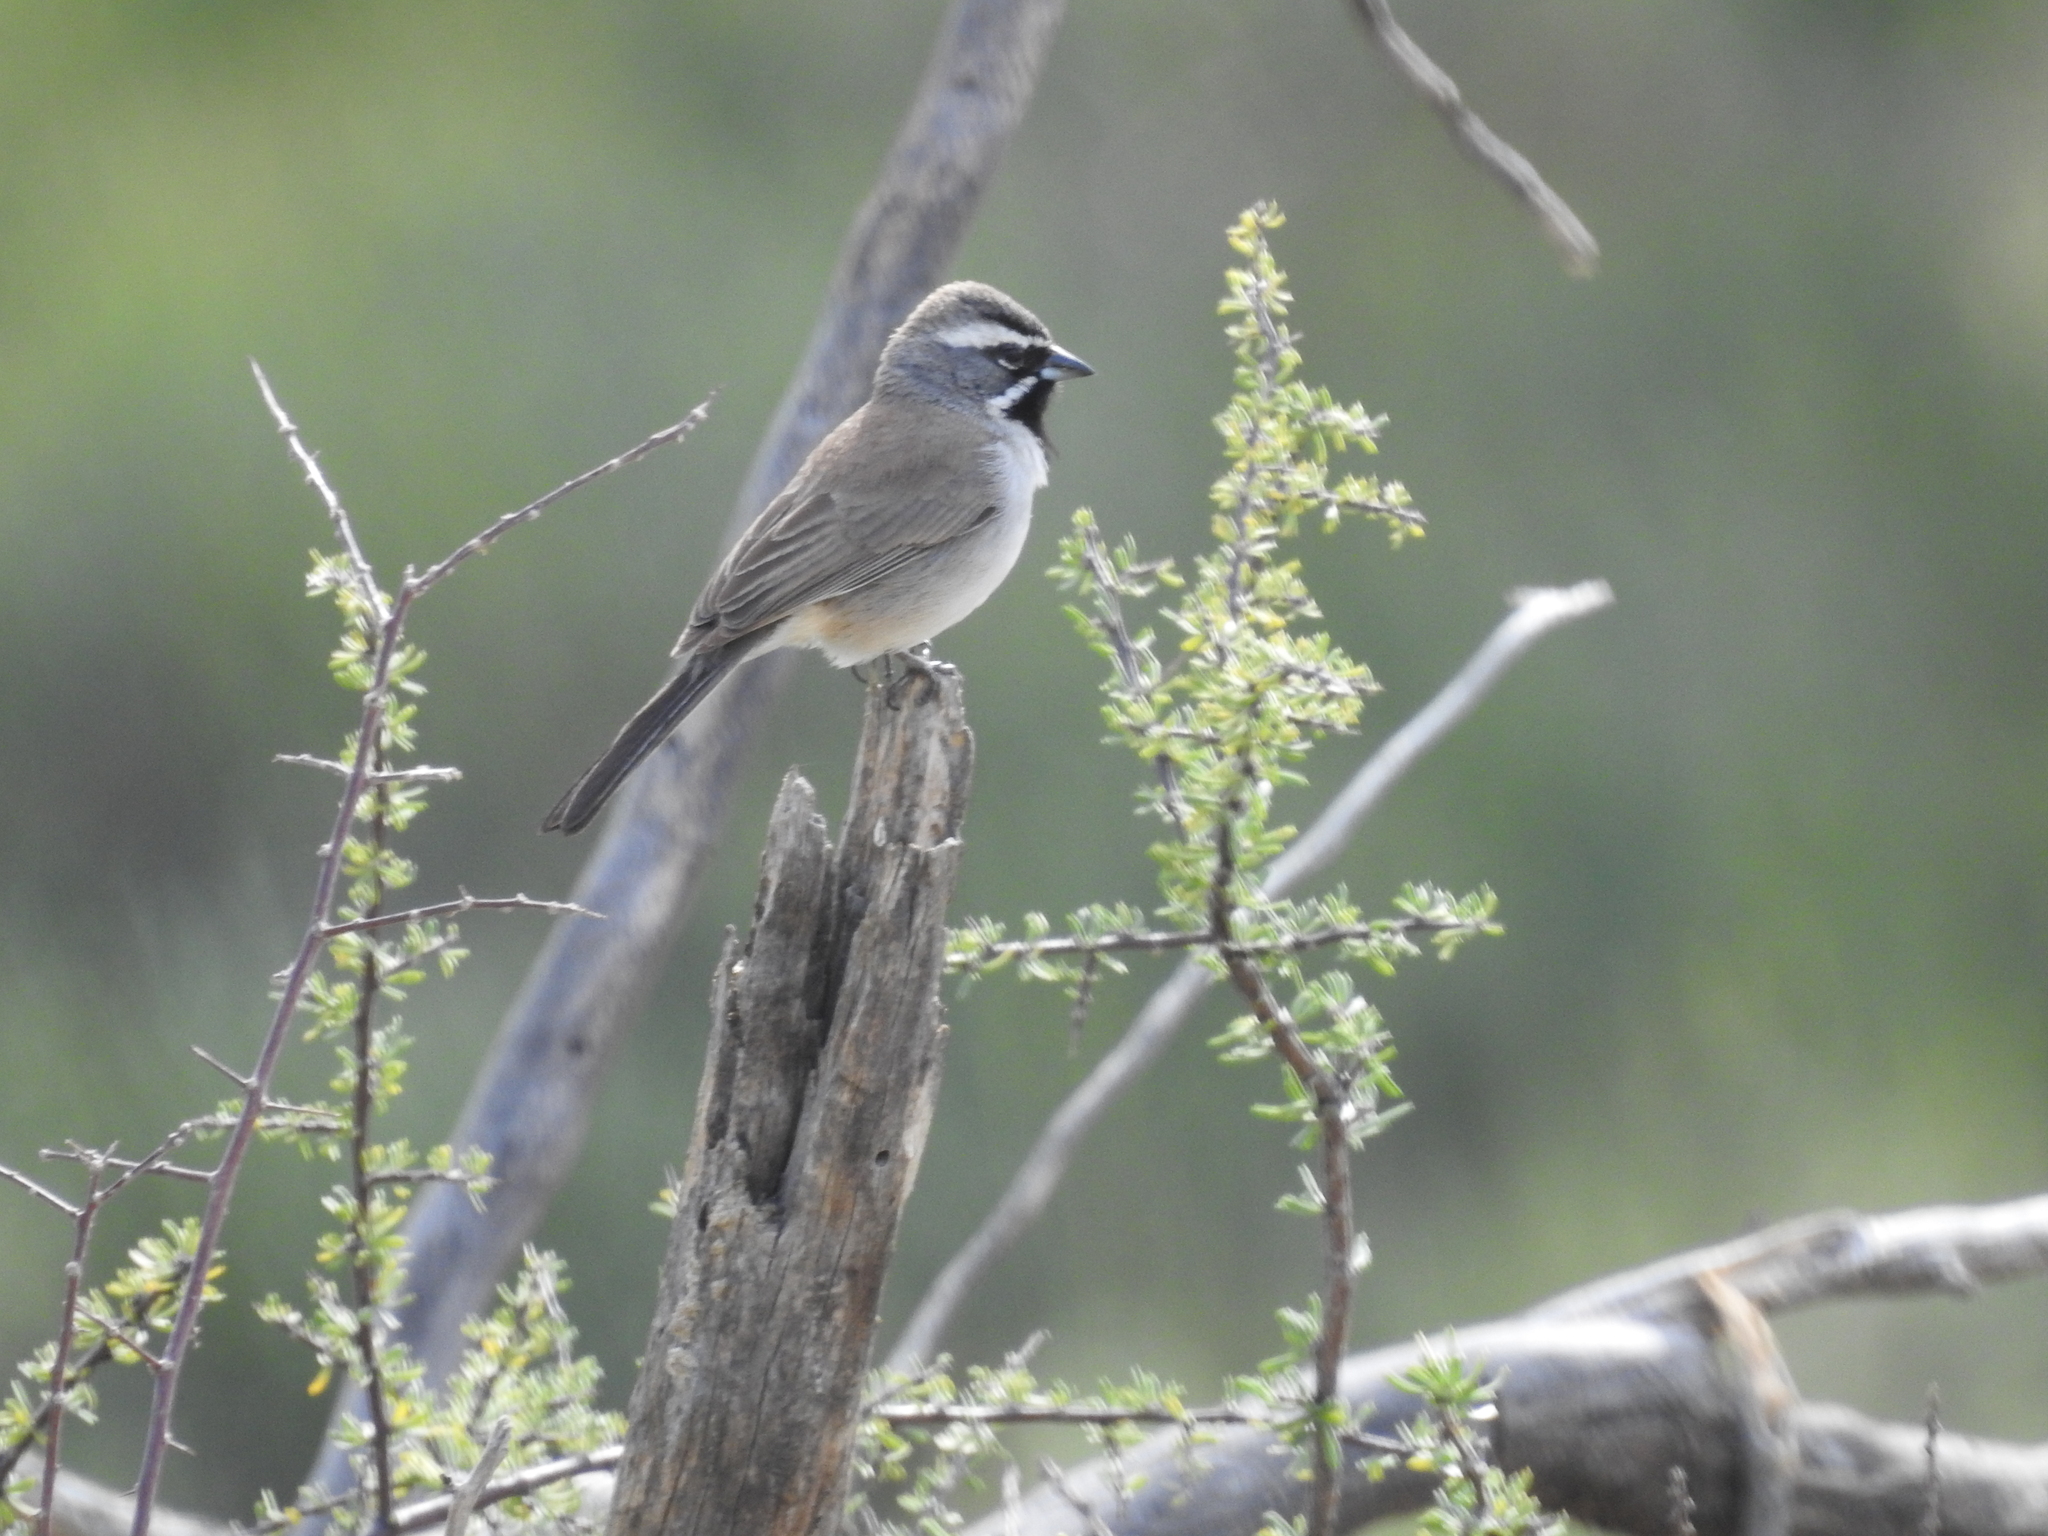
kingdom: Animalia
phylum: Chordata
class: Aves
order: Passeriformes
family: Passerellidae
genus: Amphispiza
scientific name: Amphispiza bilineata
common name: Black-throated sparrow
